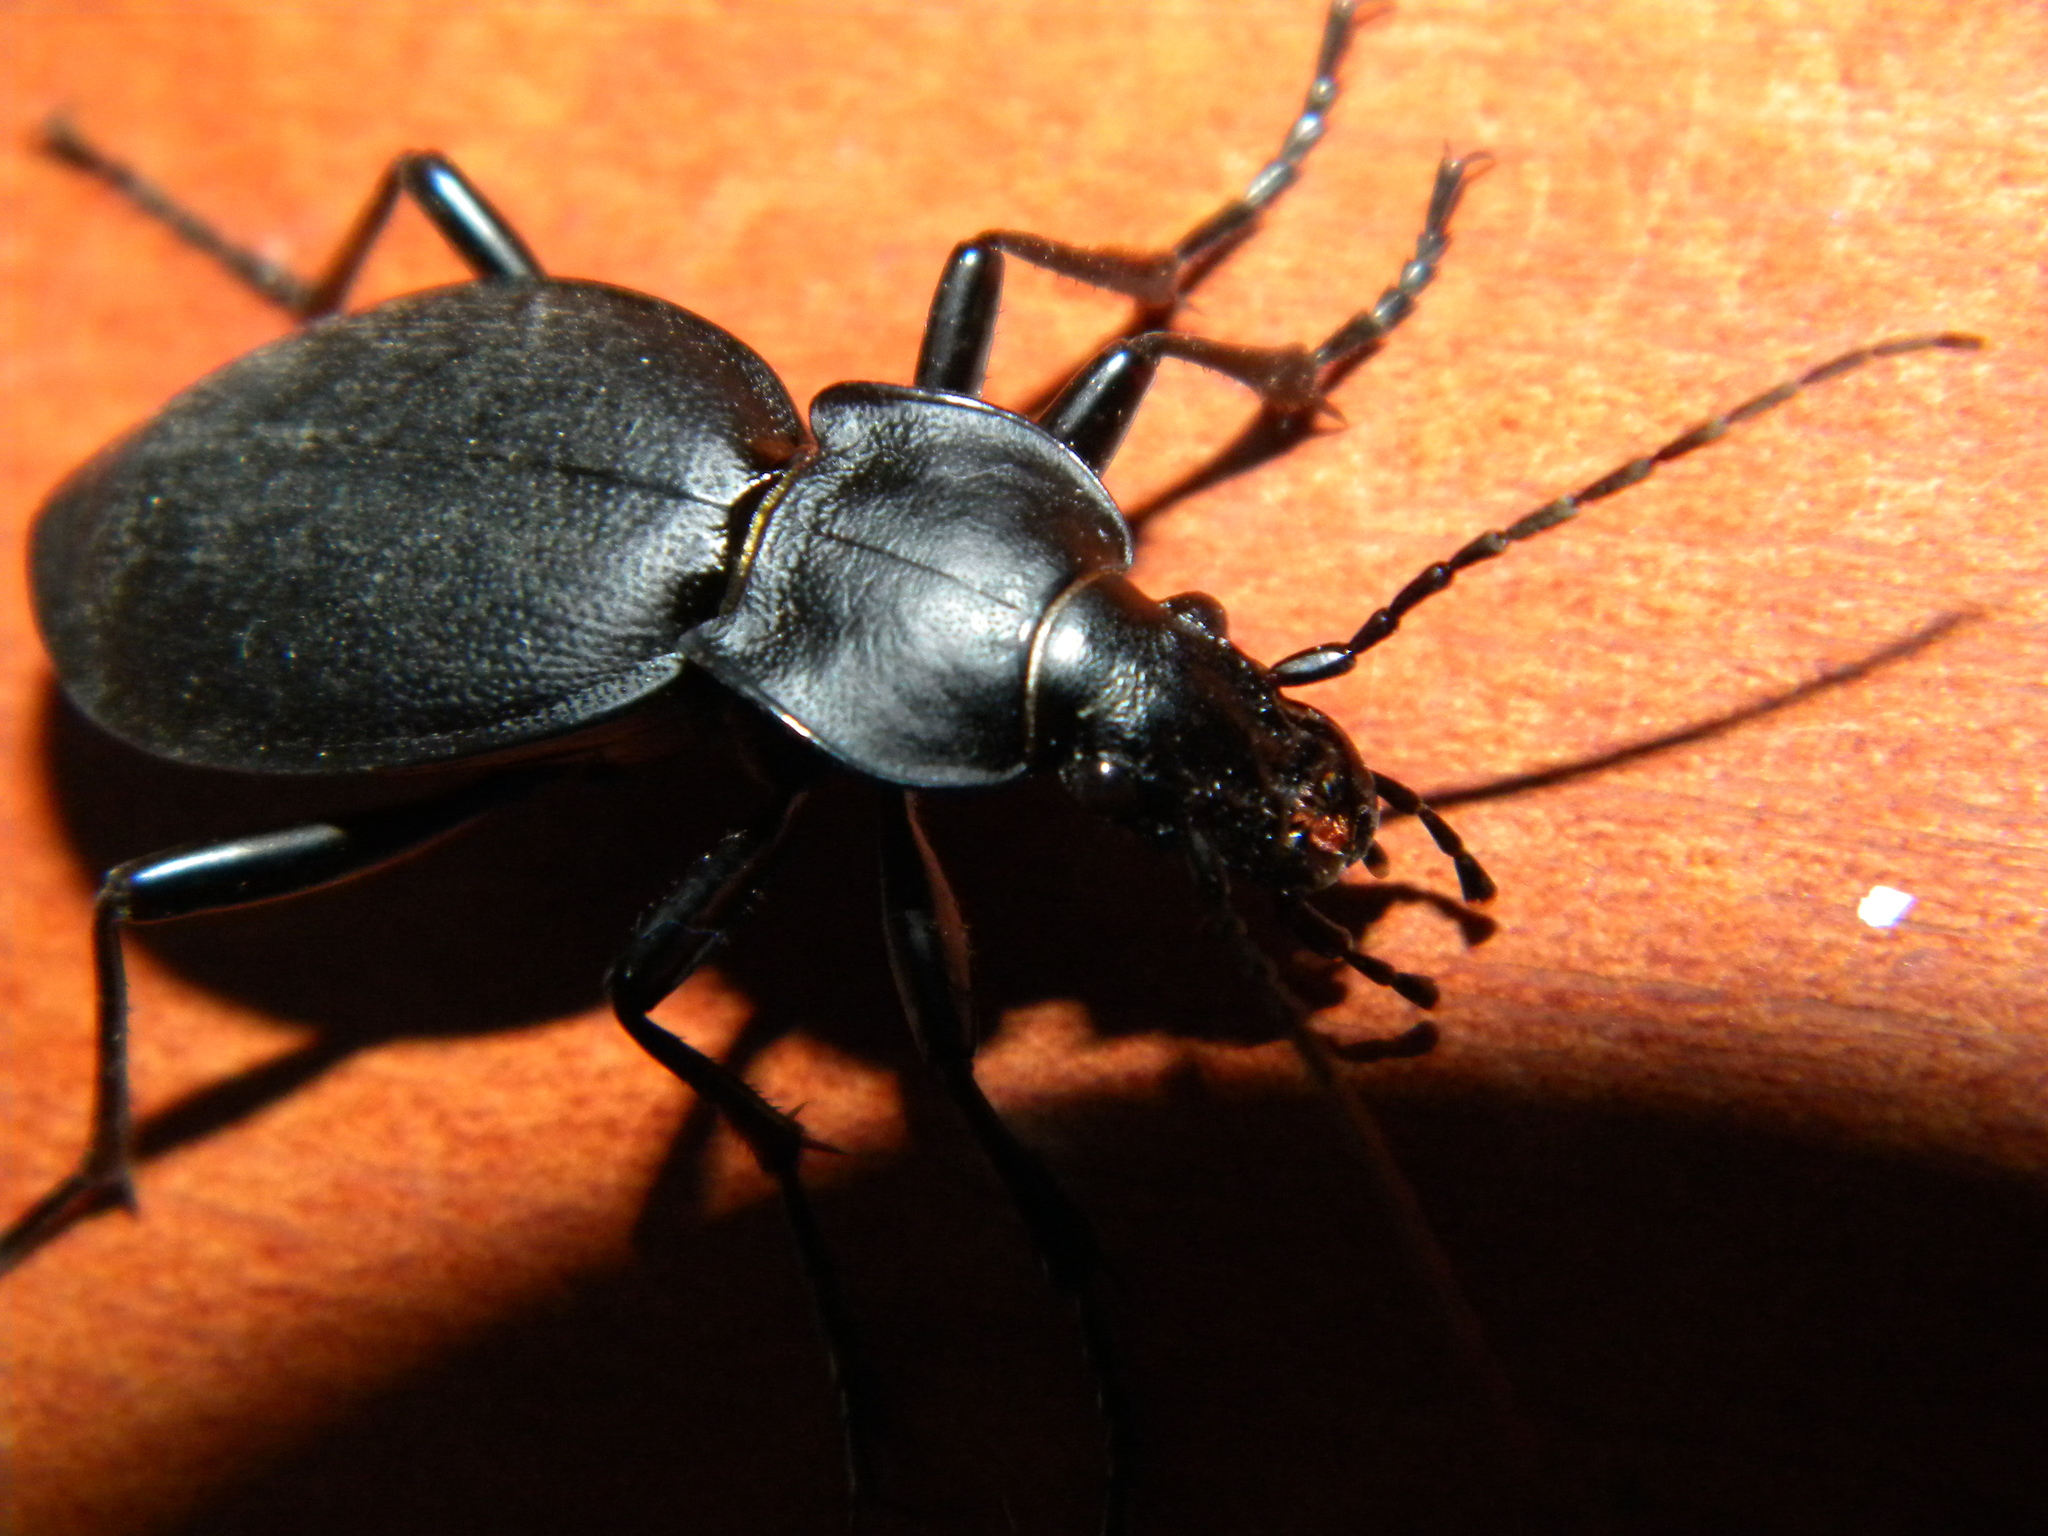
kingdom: Animalia
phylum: Arthropoda
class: Insecta
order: Coleoptera
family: Carabidae
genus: Carabus
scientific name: Carabus coriaceus
